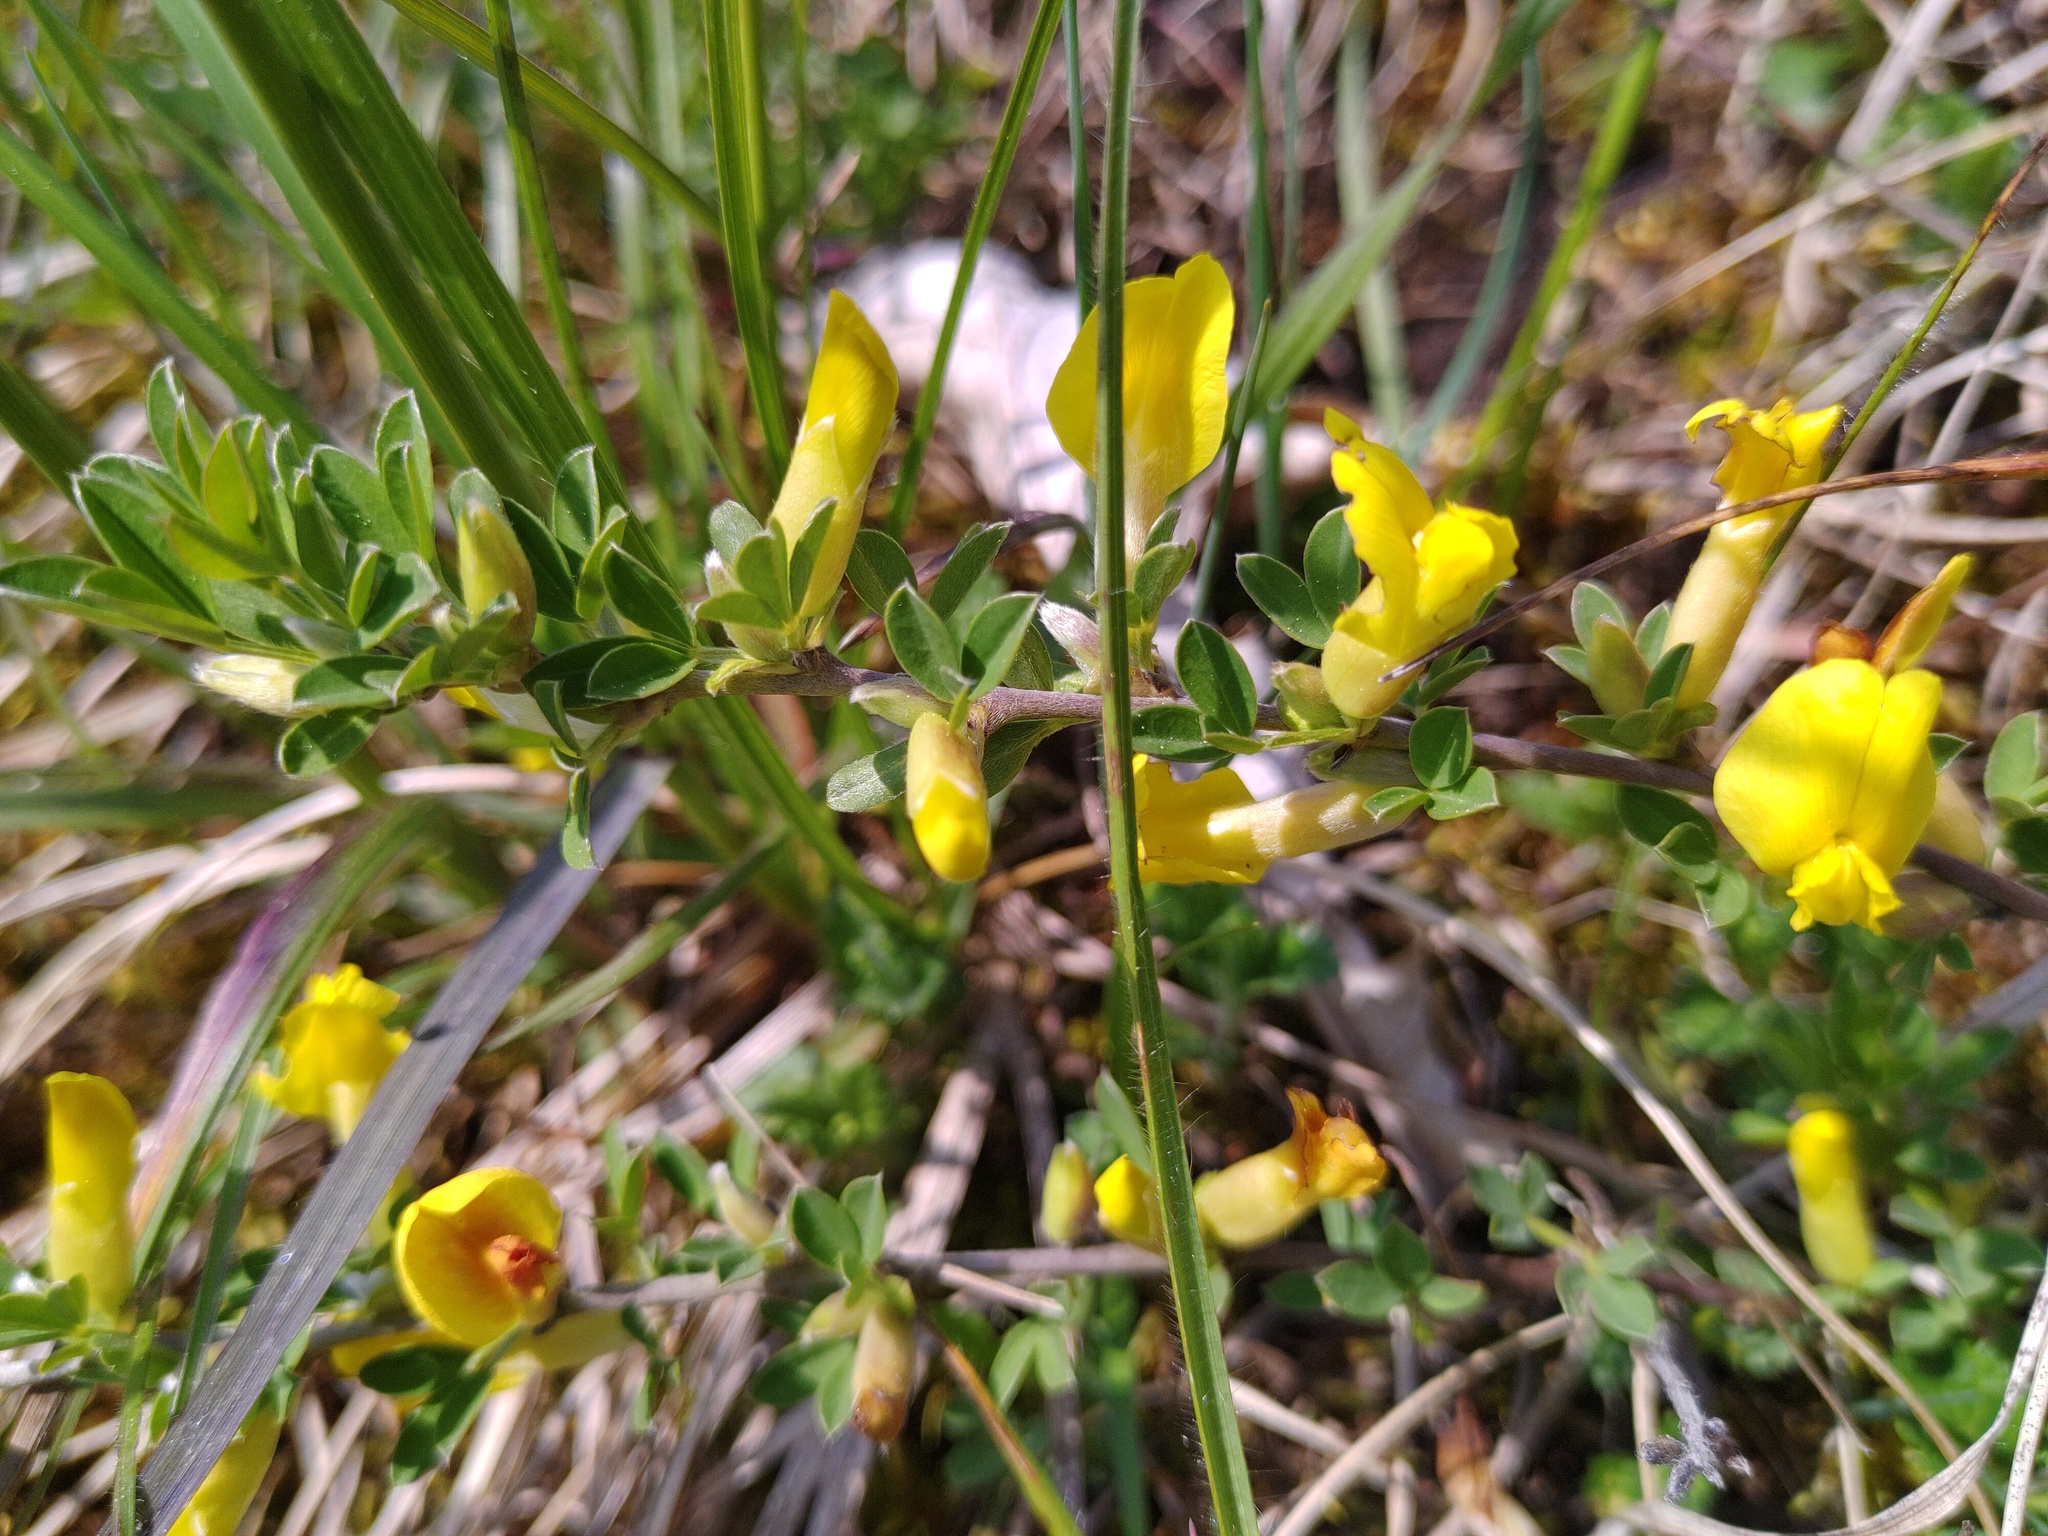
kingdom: Plantae
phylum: Tracheophyta
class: Magnoliopsida
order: Fabales
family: Fabaceae
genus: Chamaecytisus
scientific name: Chamaecytisus ratisbonensis
